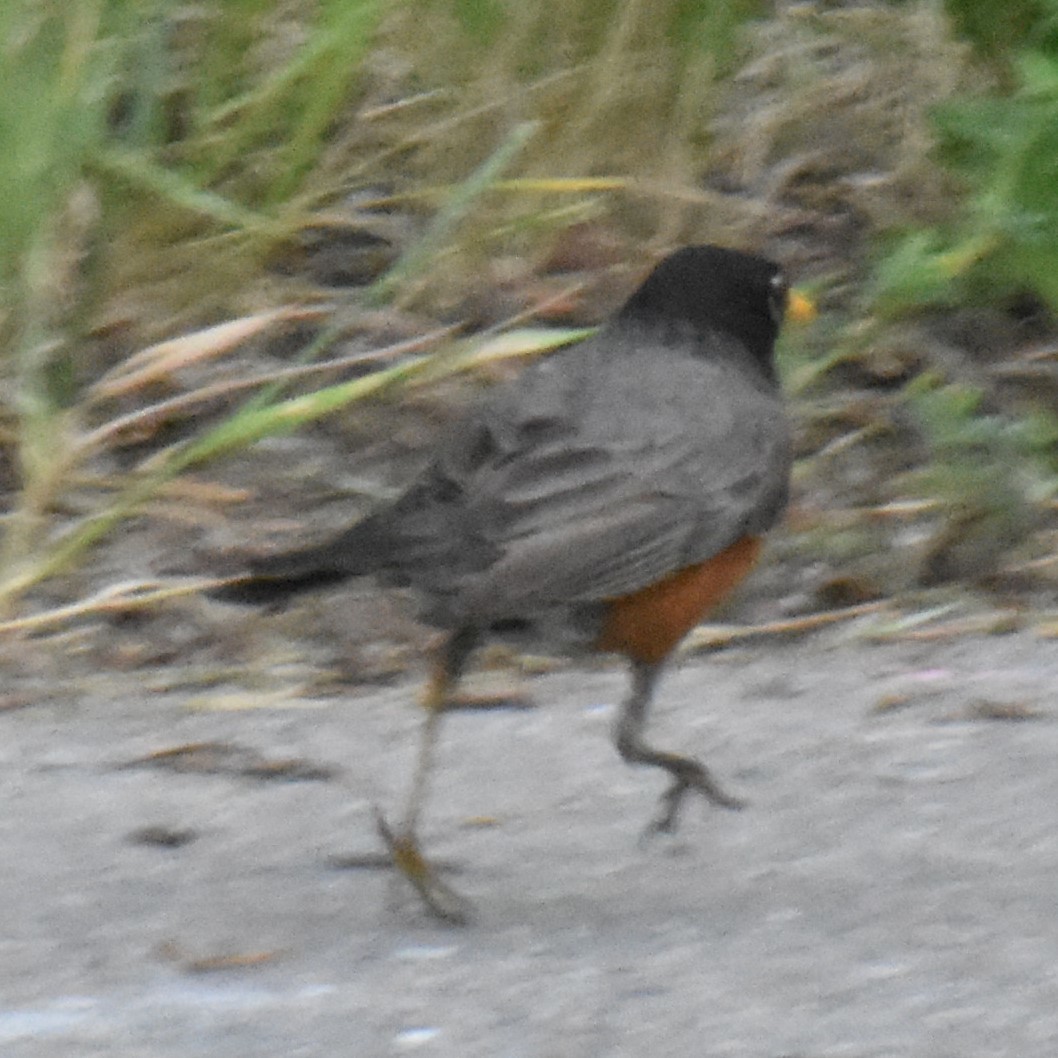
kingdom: Animalia
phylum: Chordata
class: Aves
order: Passeriformes
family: Turdidae
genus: Turdus
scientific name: Turdus migratorius
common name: American robin
